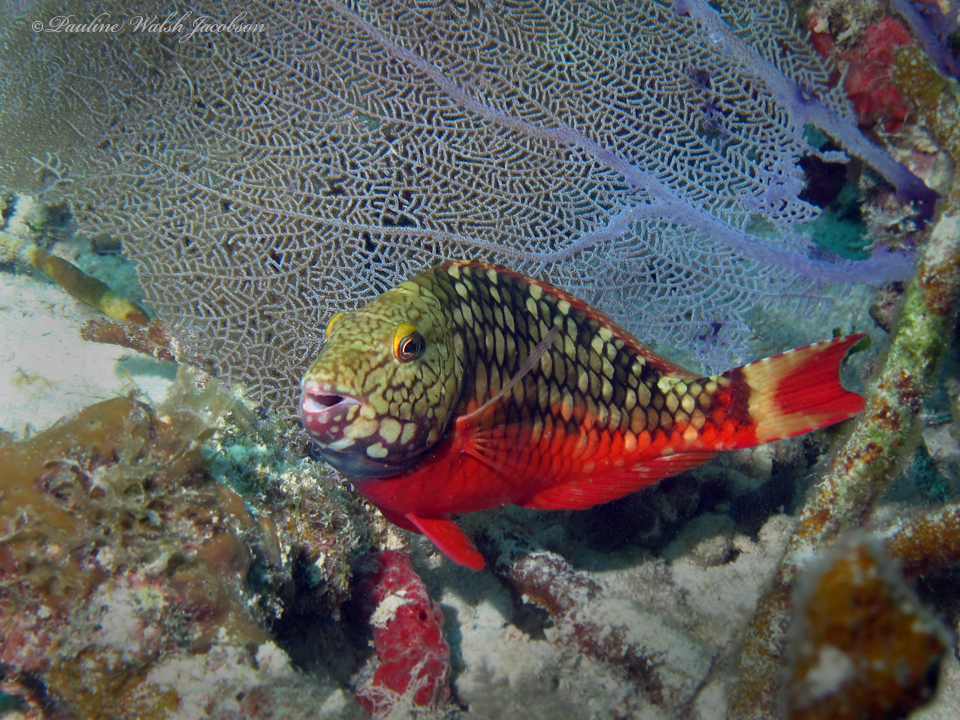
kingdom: Animalia
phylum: Chordata
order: Perciformes
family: Scaridae
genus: Sparisoma
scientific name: Sparisoma viride
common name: Stoplight parrotfish
